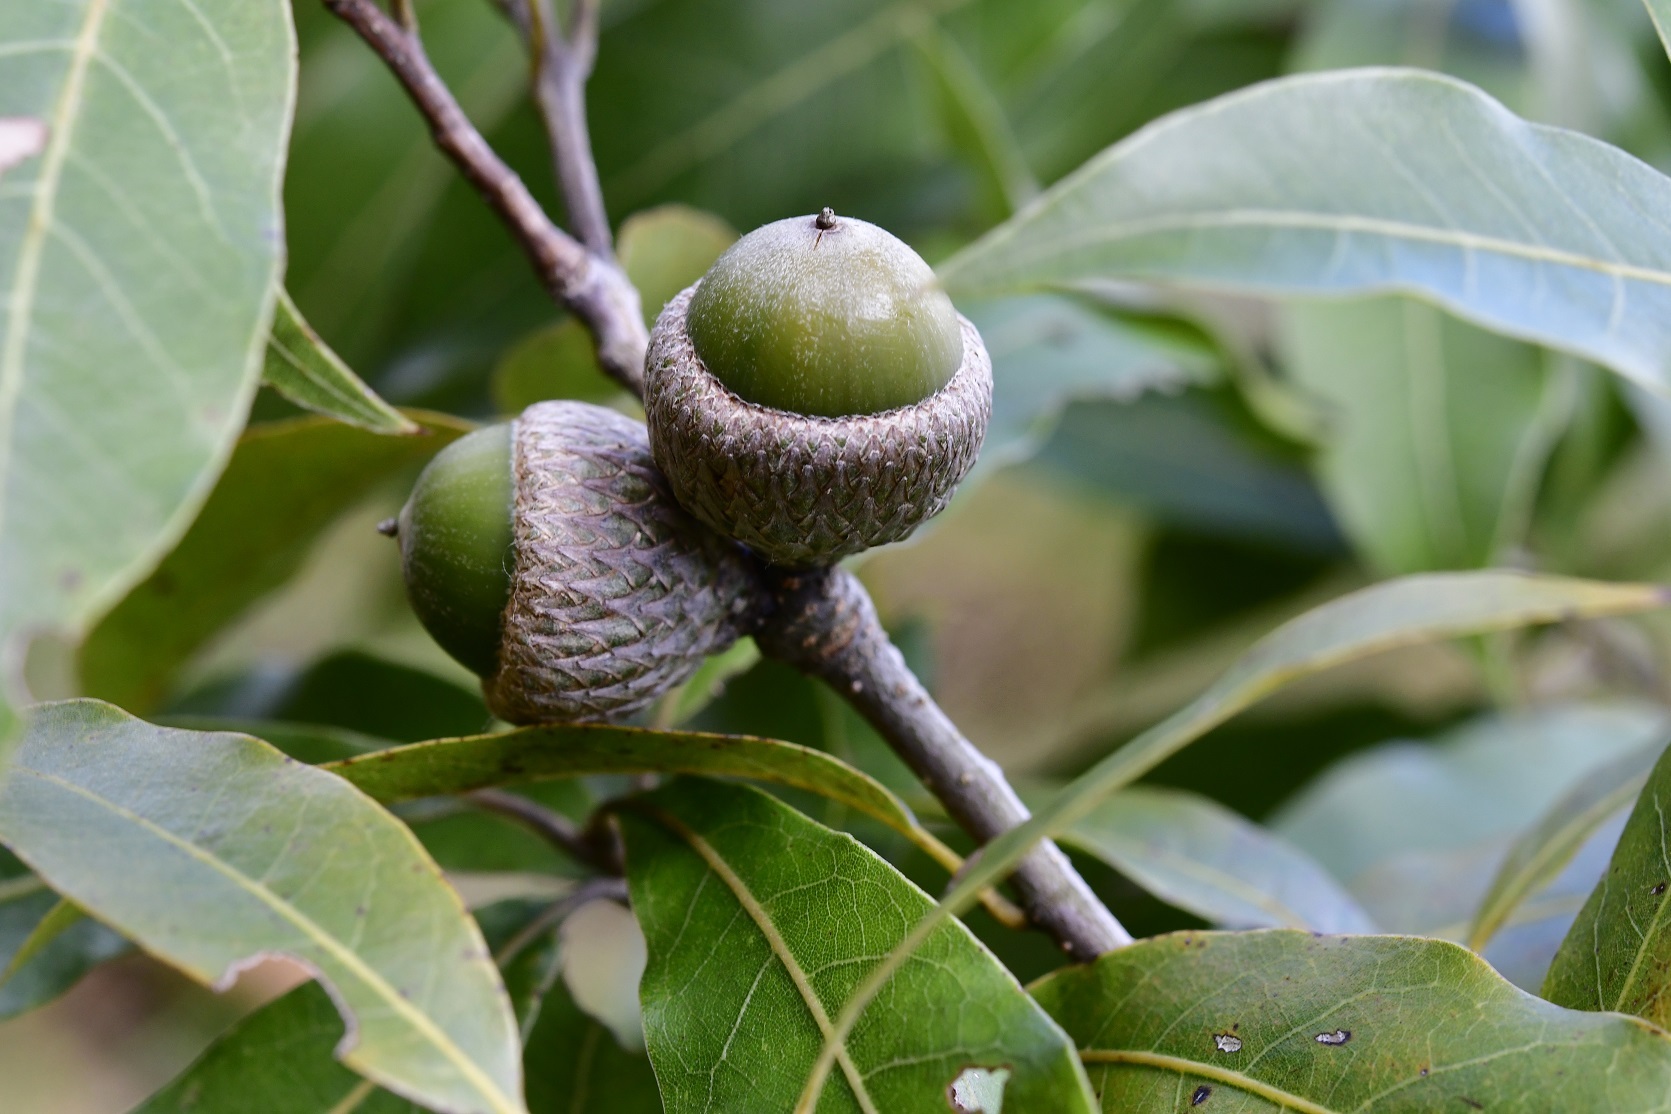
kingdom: Plantae
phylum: Tracheophyta
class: Magnoliopsida
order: Fagales
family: Fagaceae
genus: Quercus
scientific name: Quercus acatenangensis
